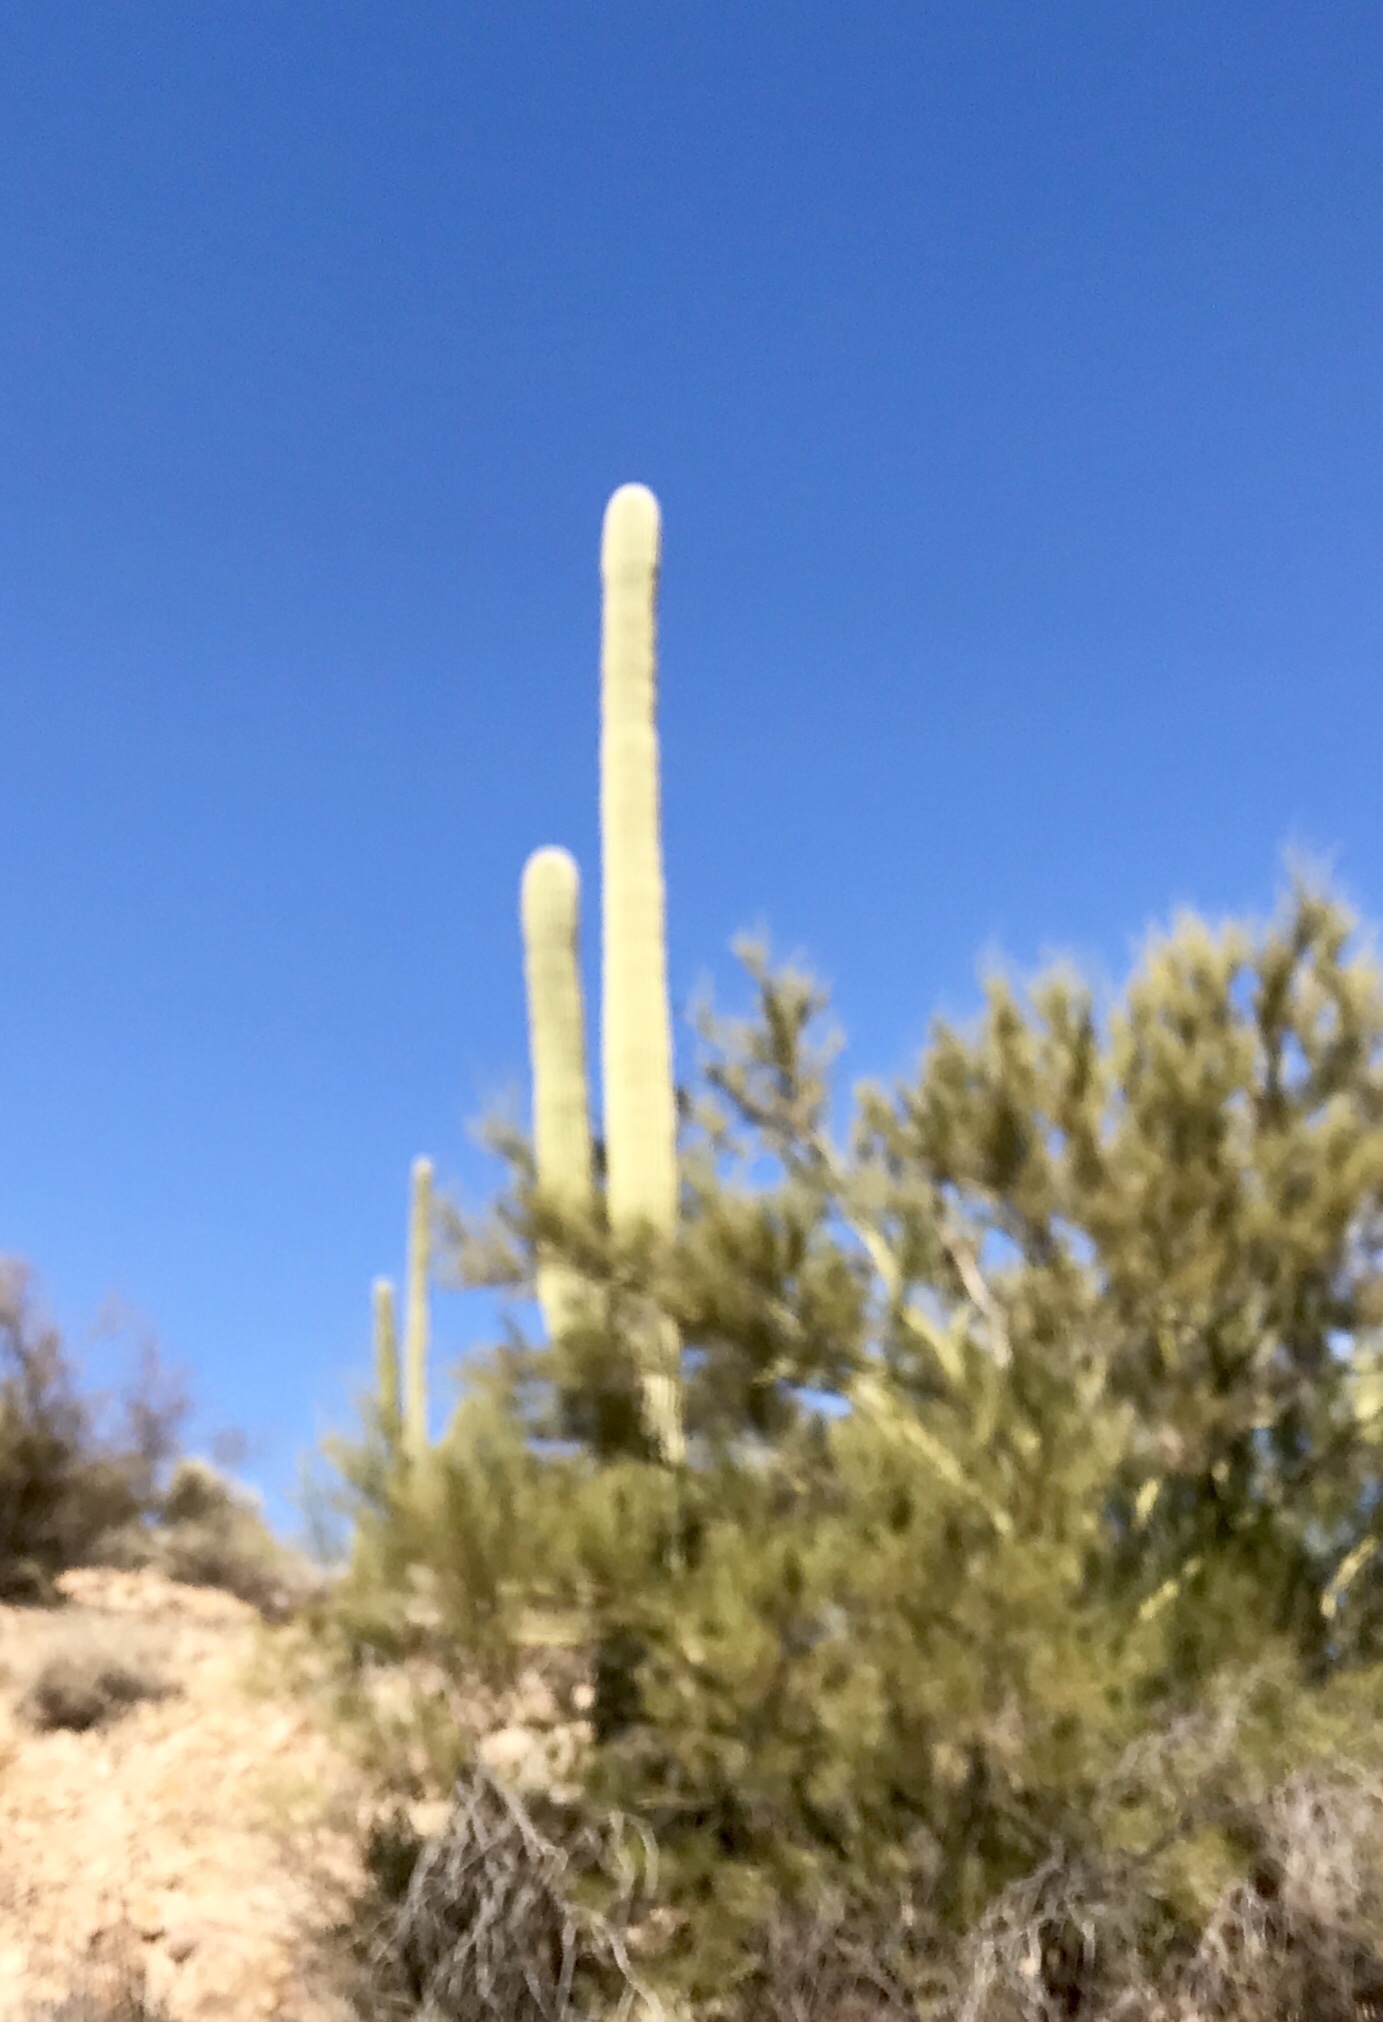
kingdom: Plantae
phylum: Tracheophyta
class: Magnoliopsida
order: Caryophyllales
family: Cactaceae
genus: Carnegiea
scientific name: Carnegiea gigantea
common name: Saguaro
